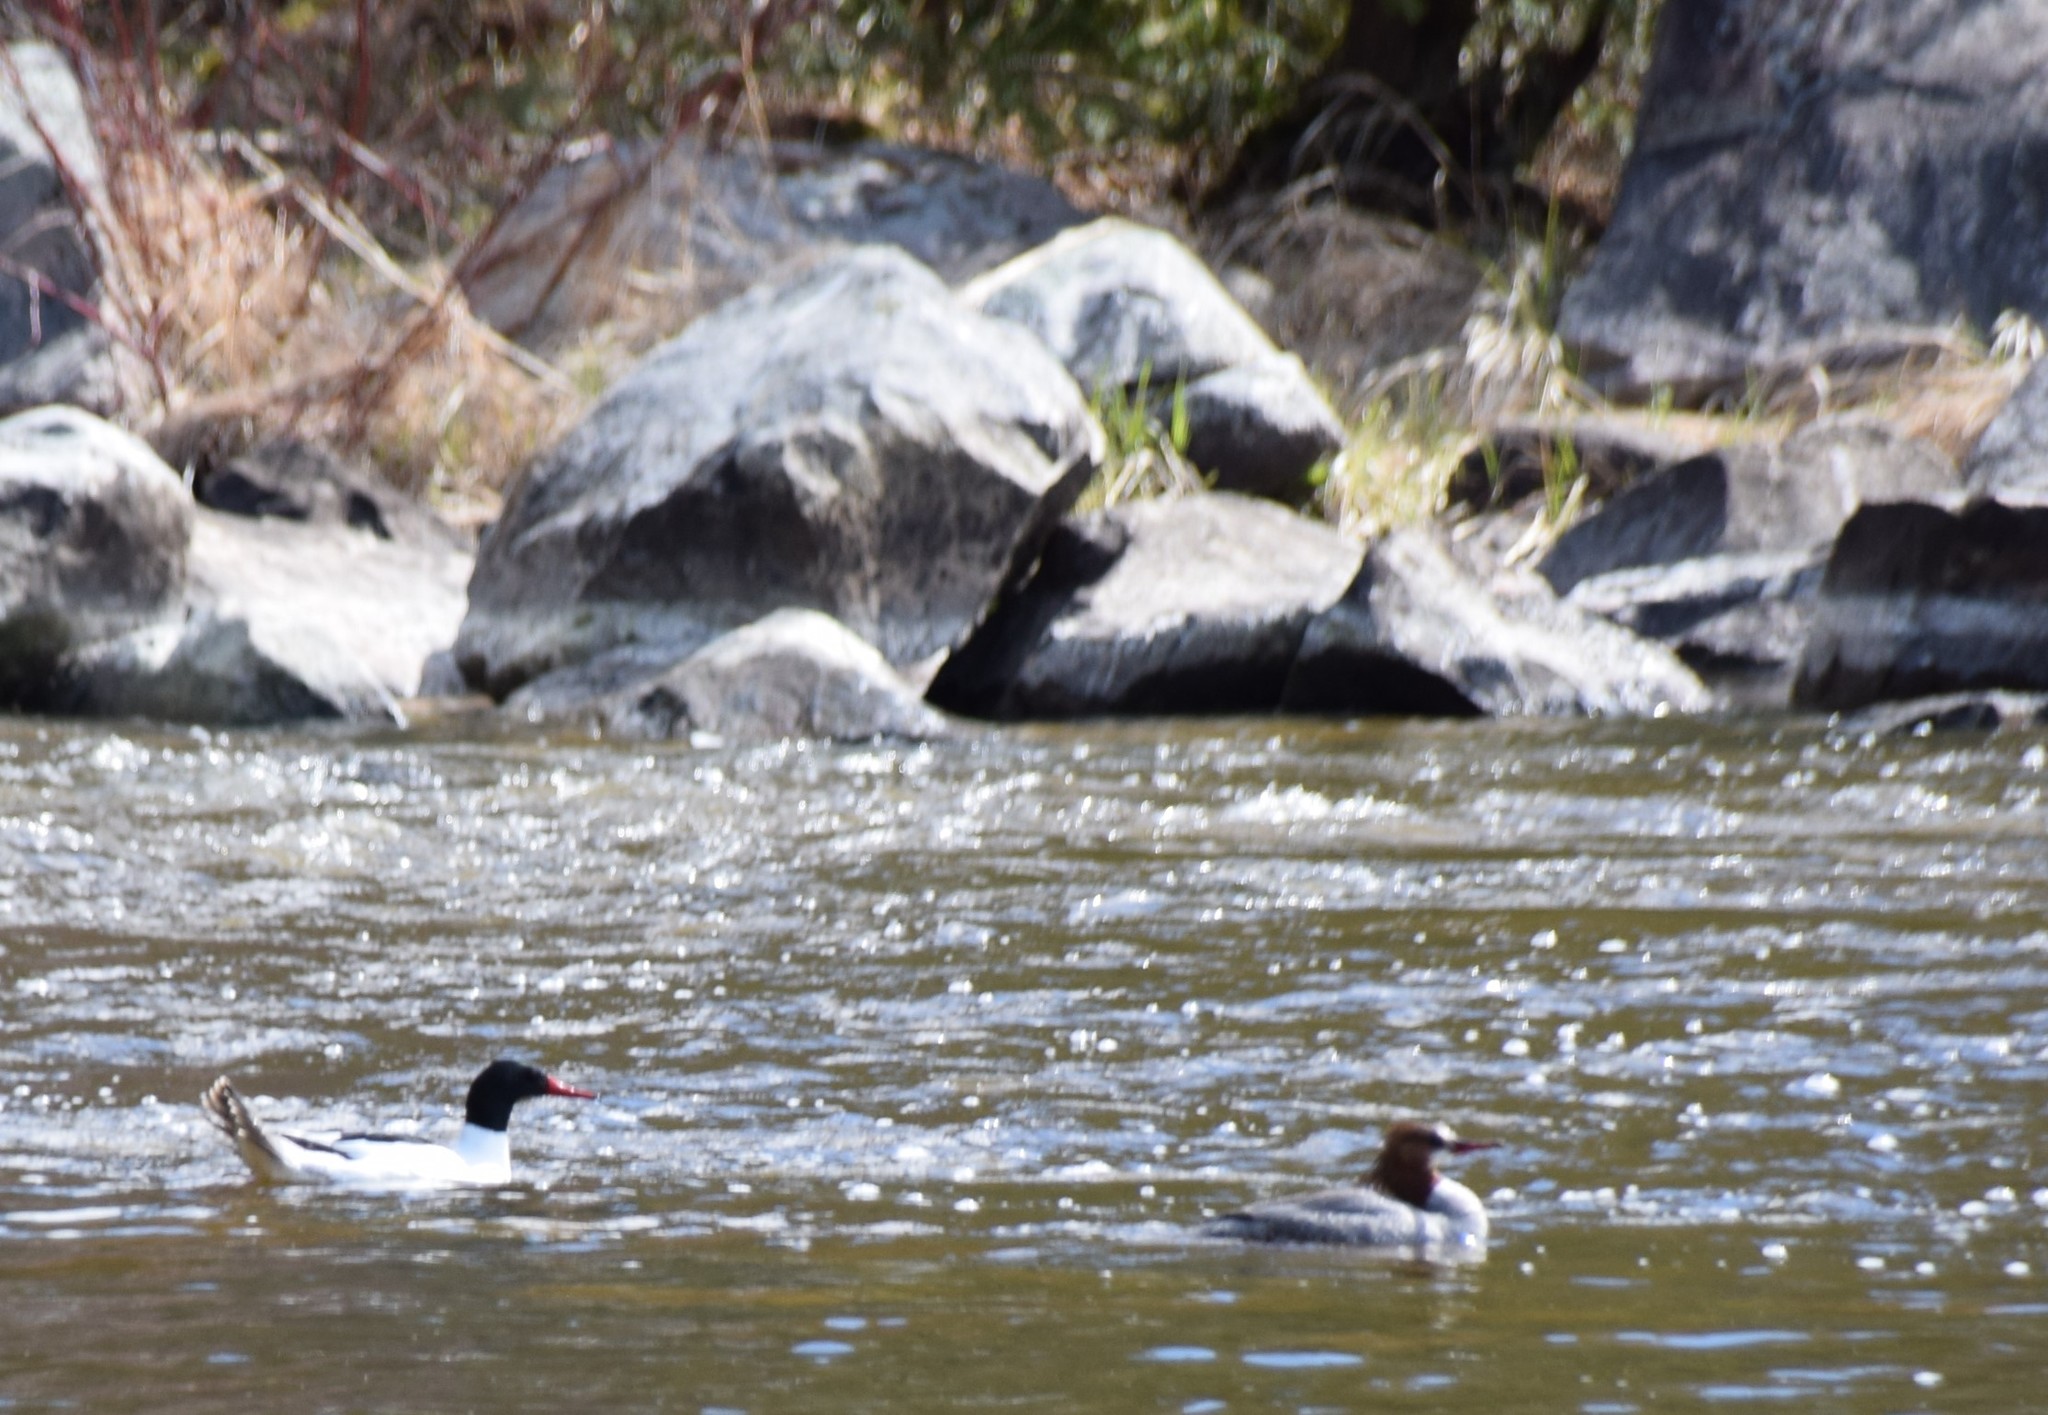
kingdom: Animalia
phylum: Chordata
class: Aves
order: Anseriformes
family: Anatidae
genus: Mergus
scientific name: Mergus merganser
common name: Common merganser
